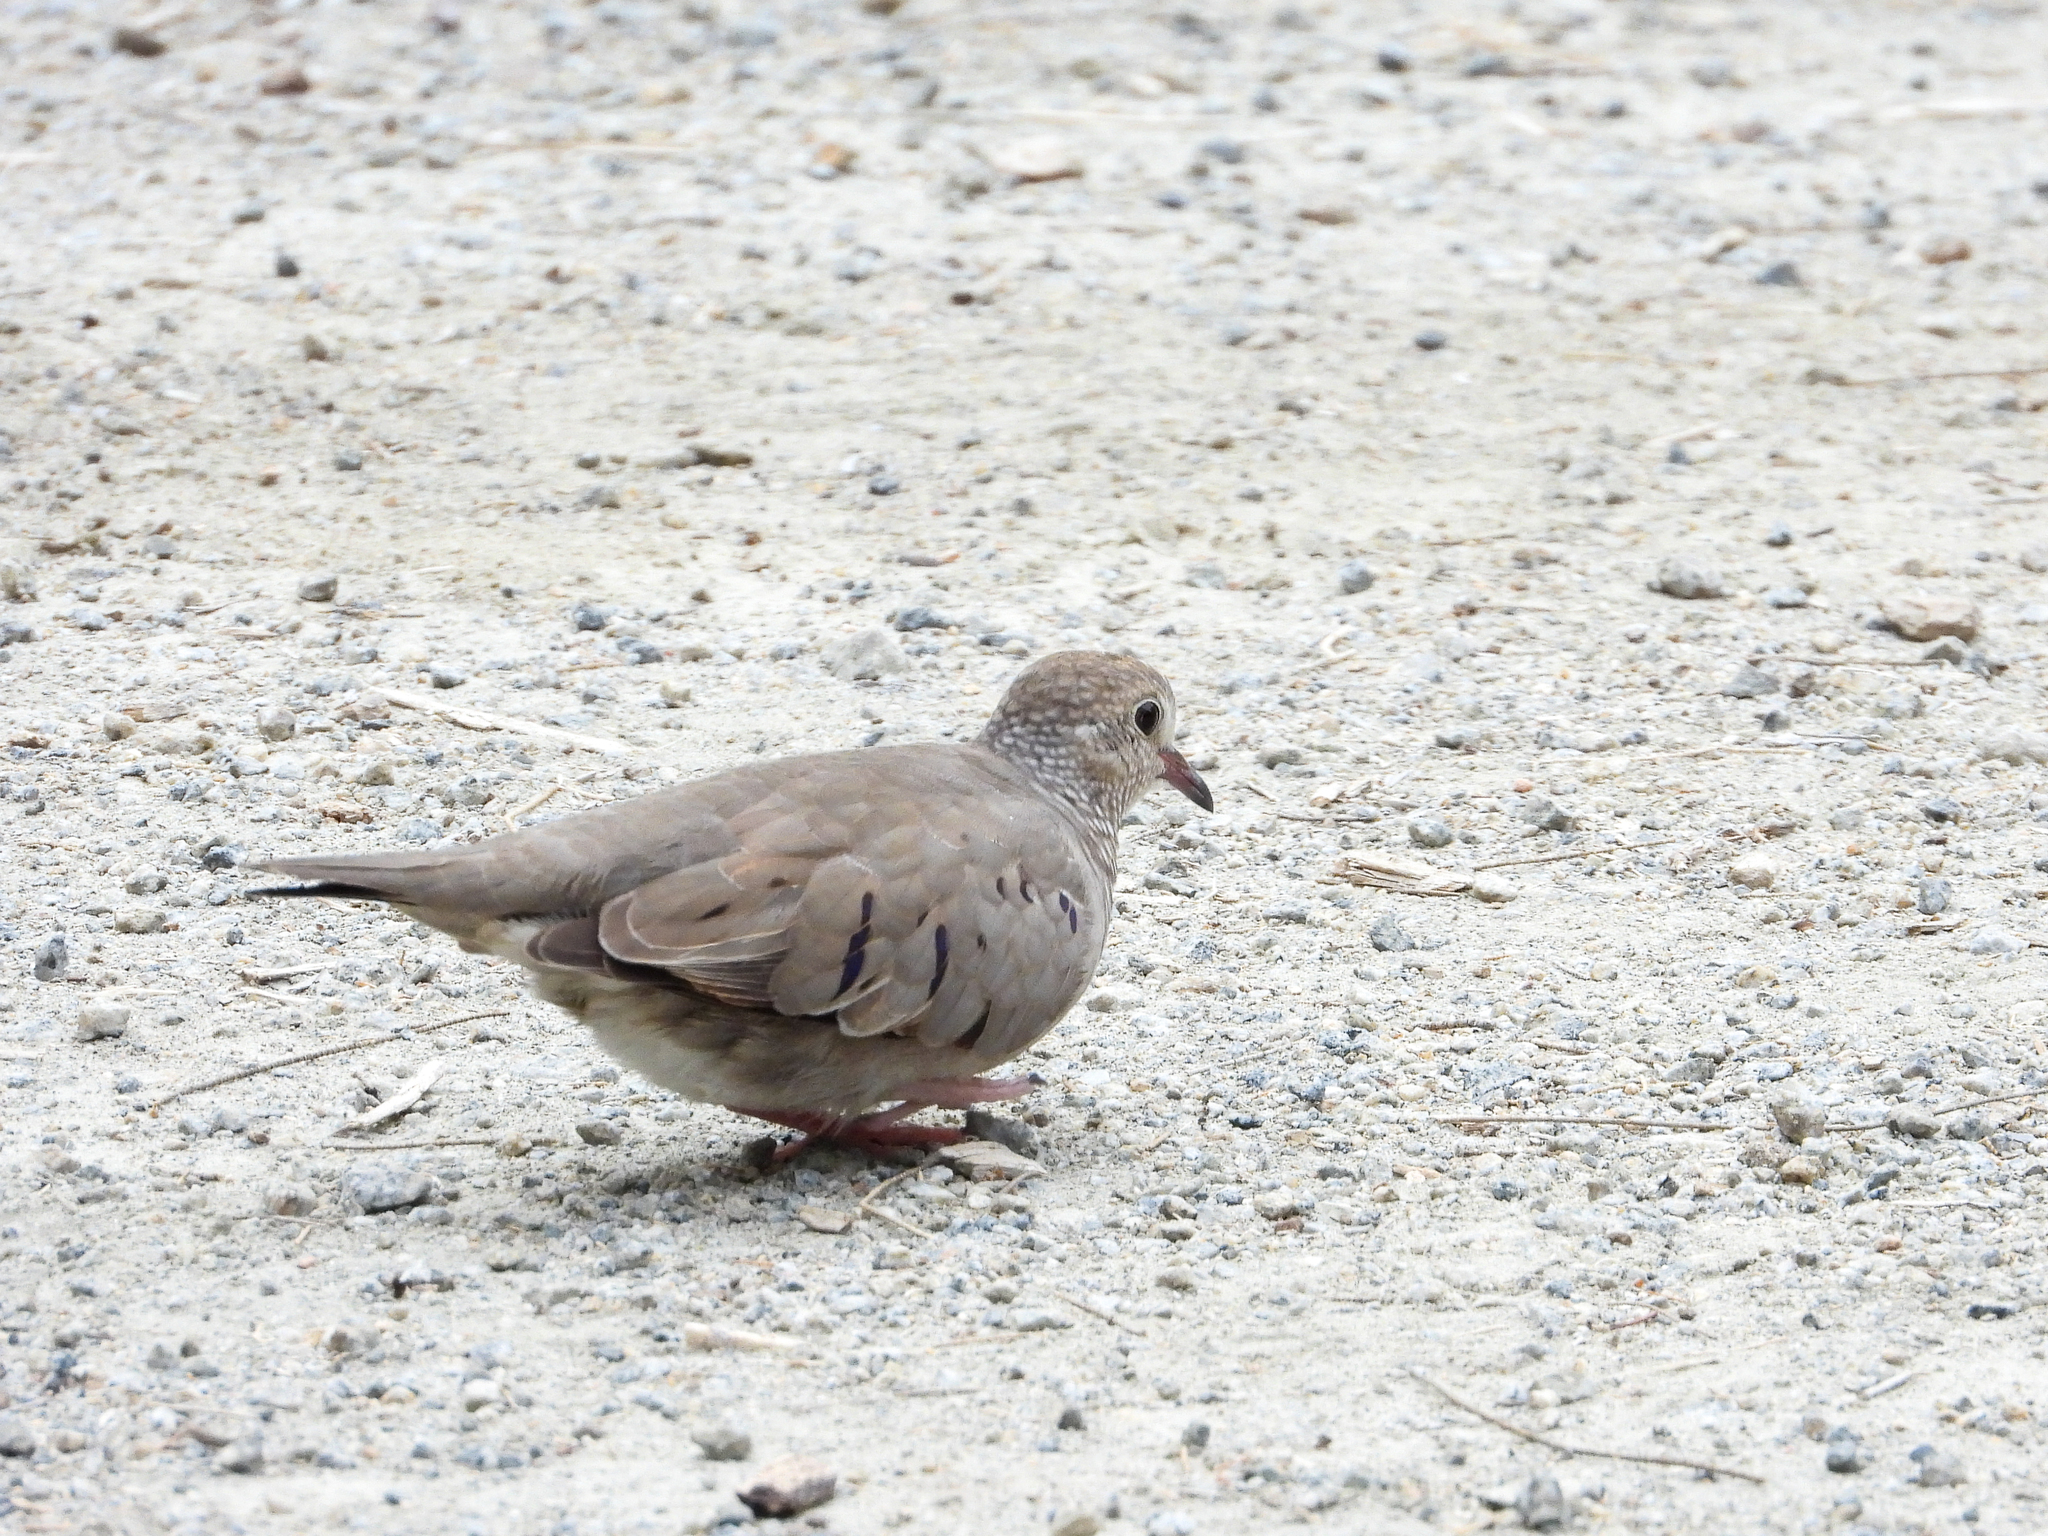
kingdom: Animalia
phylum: Chordata
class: Aves
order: Columbiformes
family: Columbidae
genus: Columbina
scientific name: Columbina passerina
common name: Common ground-dove
